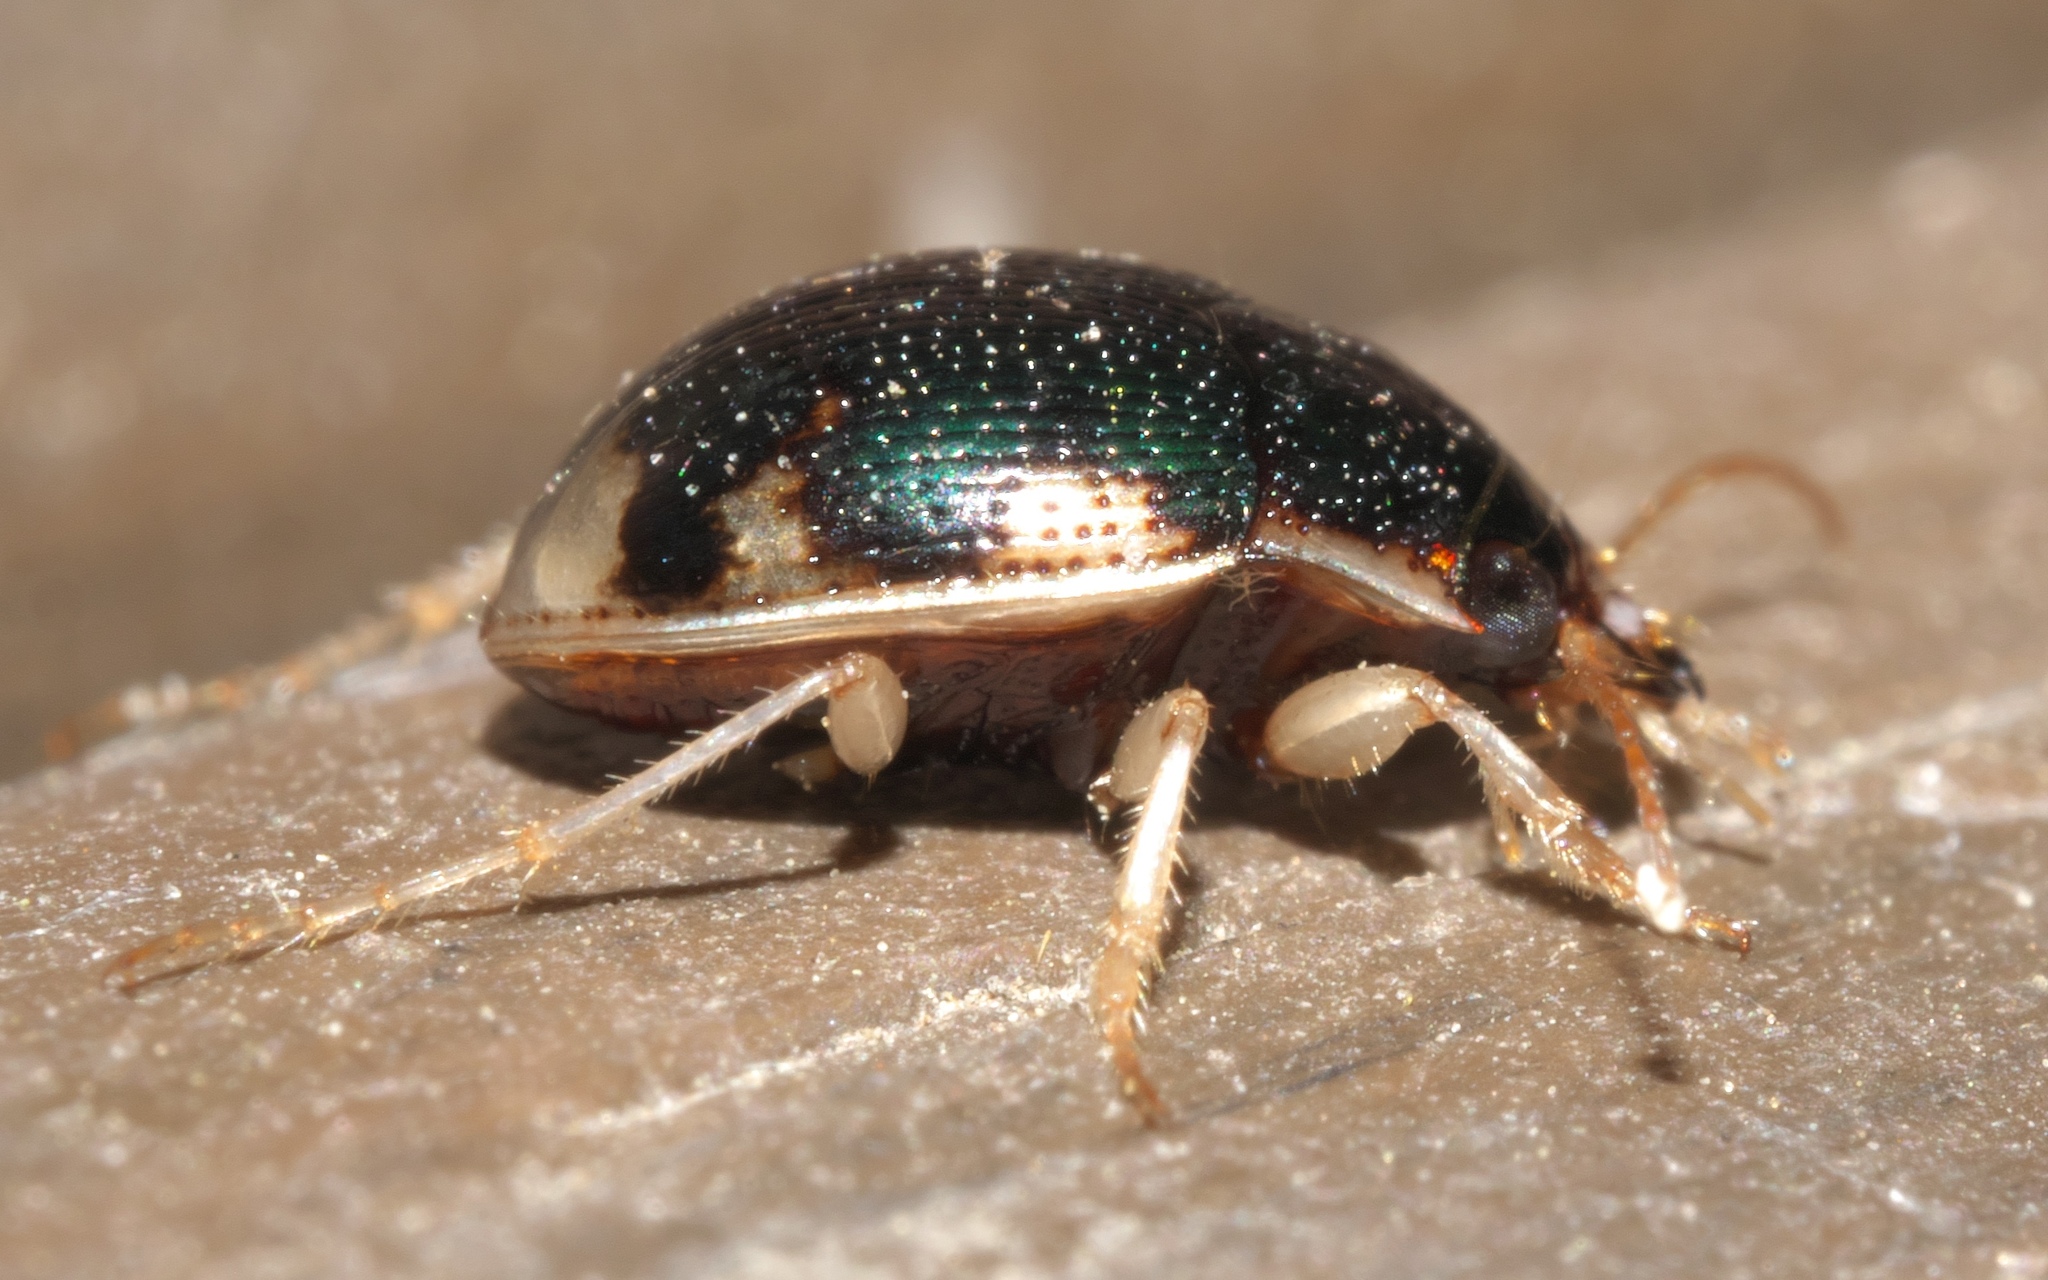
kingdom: Animalia
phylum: Arthropoda
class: Insecta
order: Coleoptera
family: Carabidae
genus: Omophron
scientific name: Omophron nitidum
